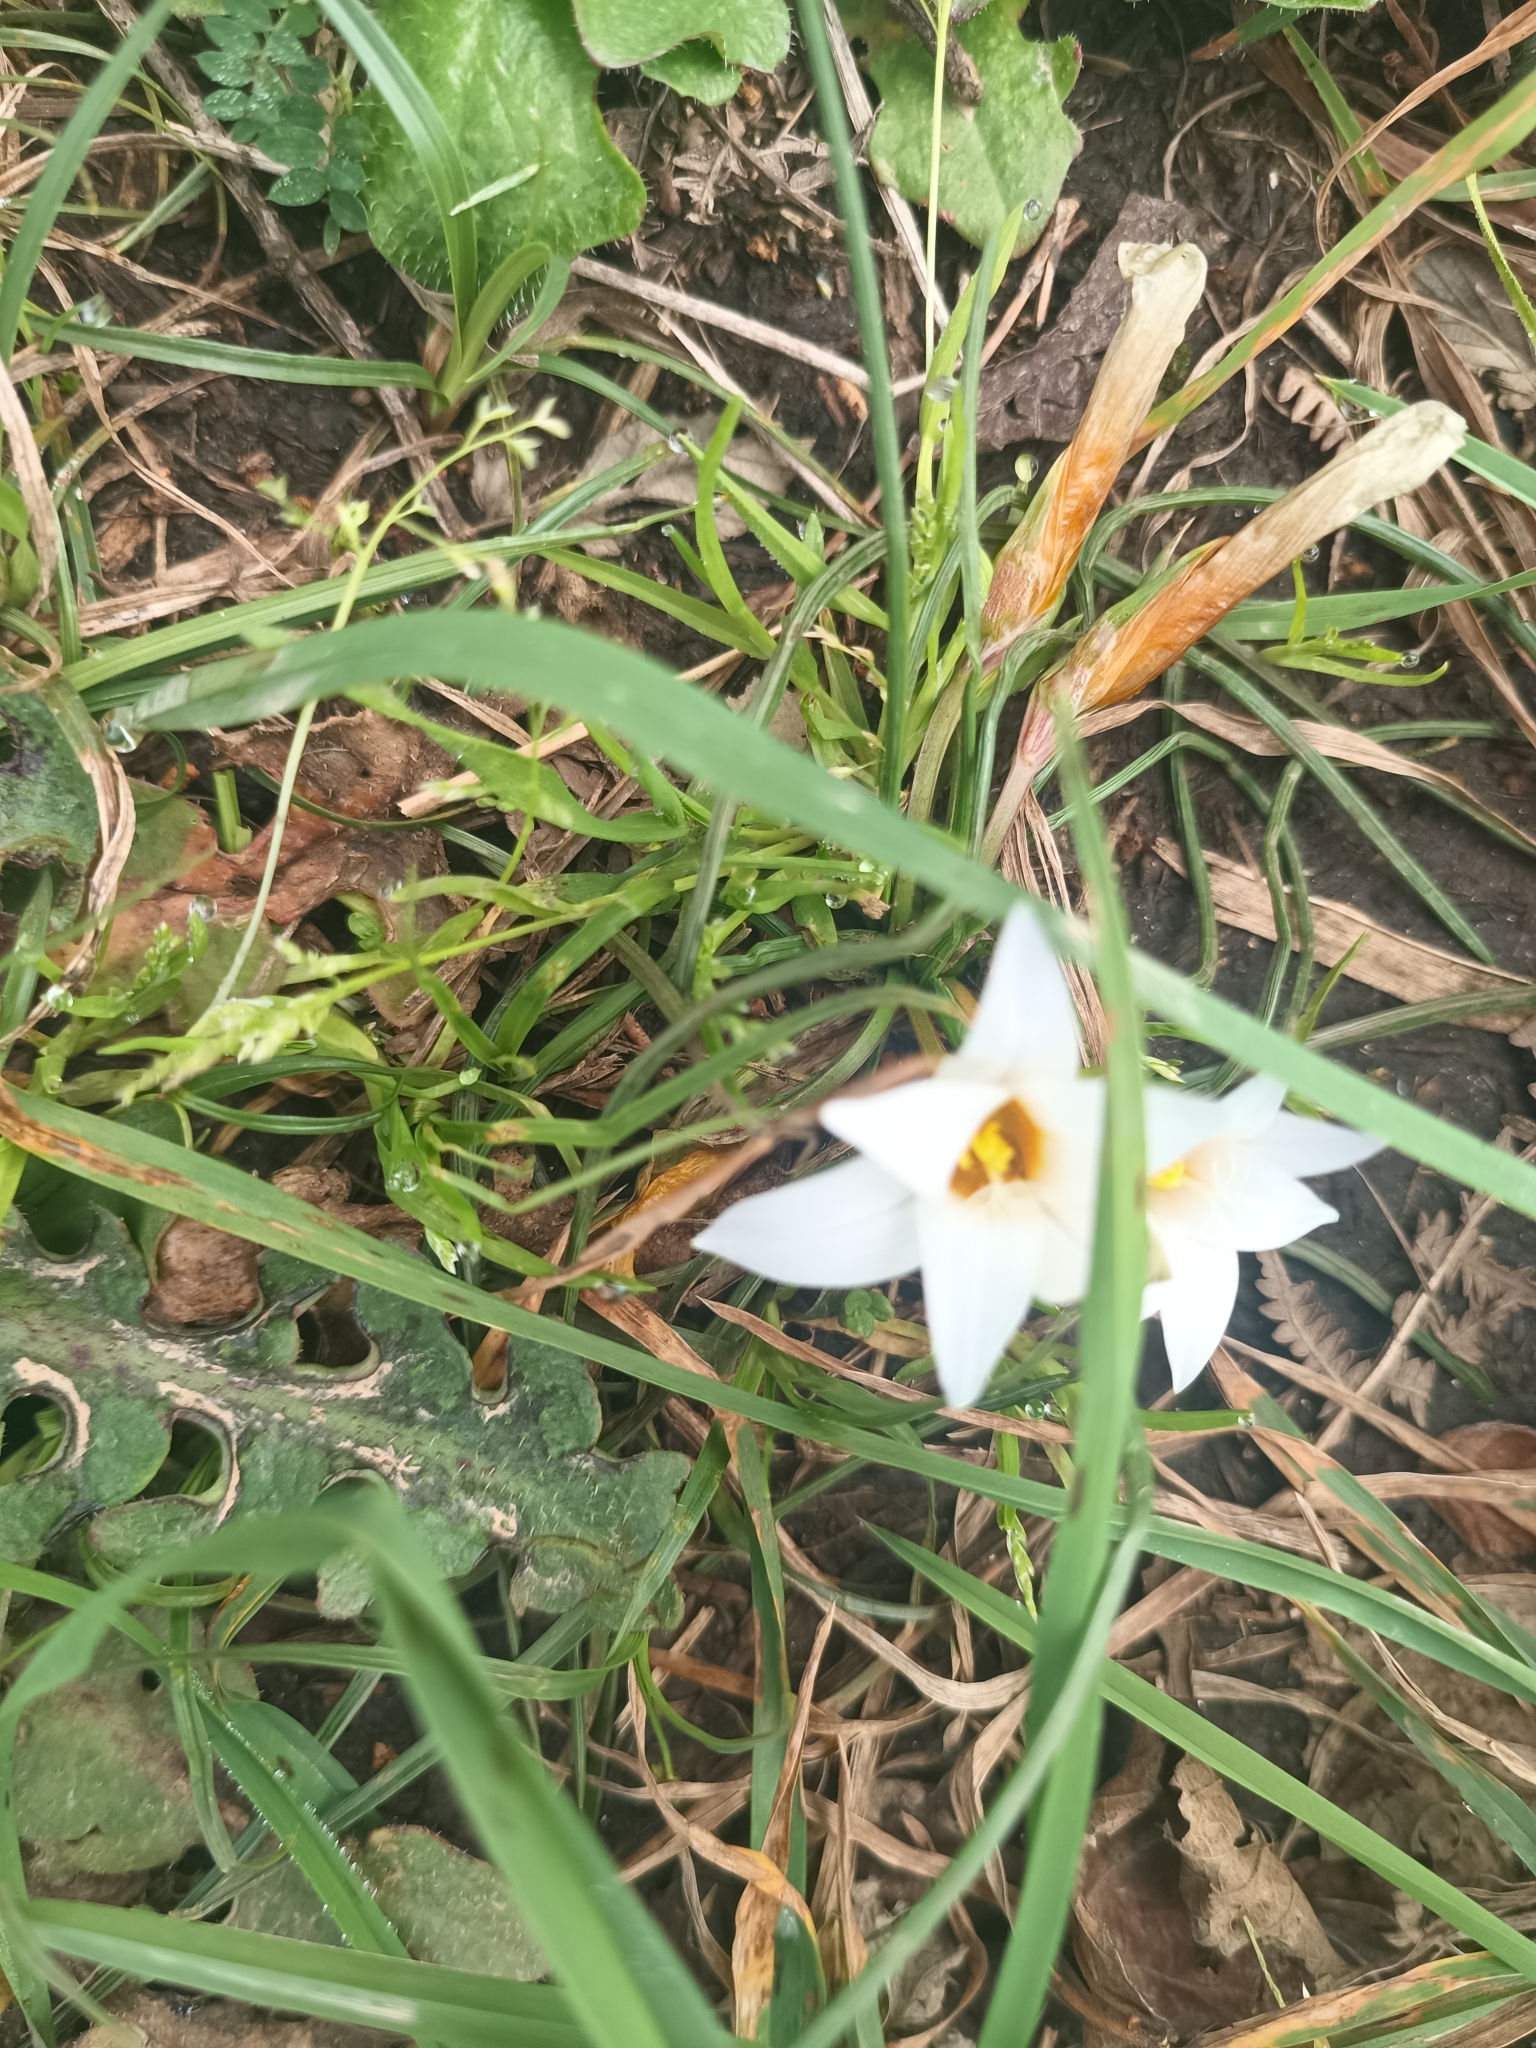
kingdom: Plantae
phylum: Tracheophyta
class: Liliopsida
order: Asparagales
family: Iridaceae
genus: Romulea
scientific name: Romulea bulbocodium
